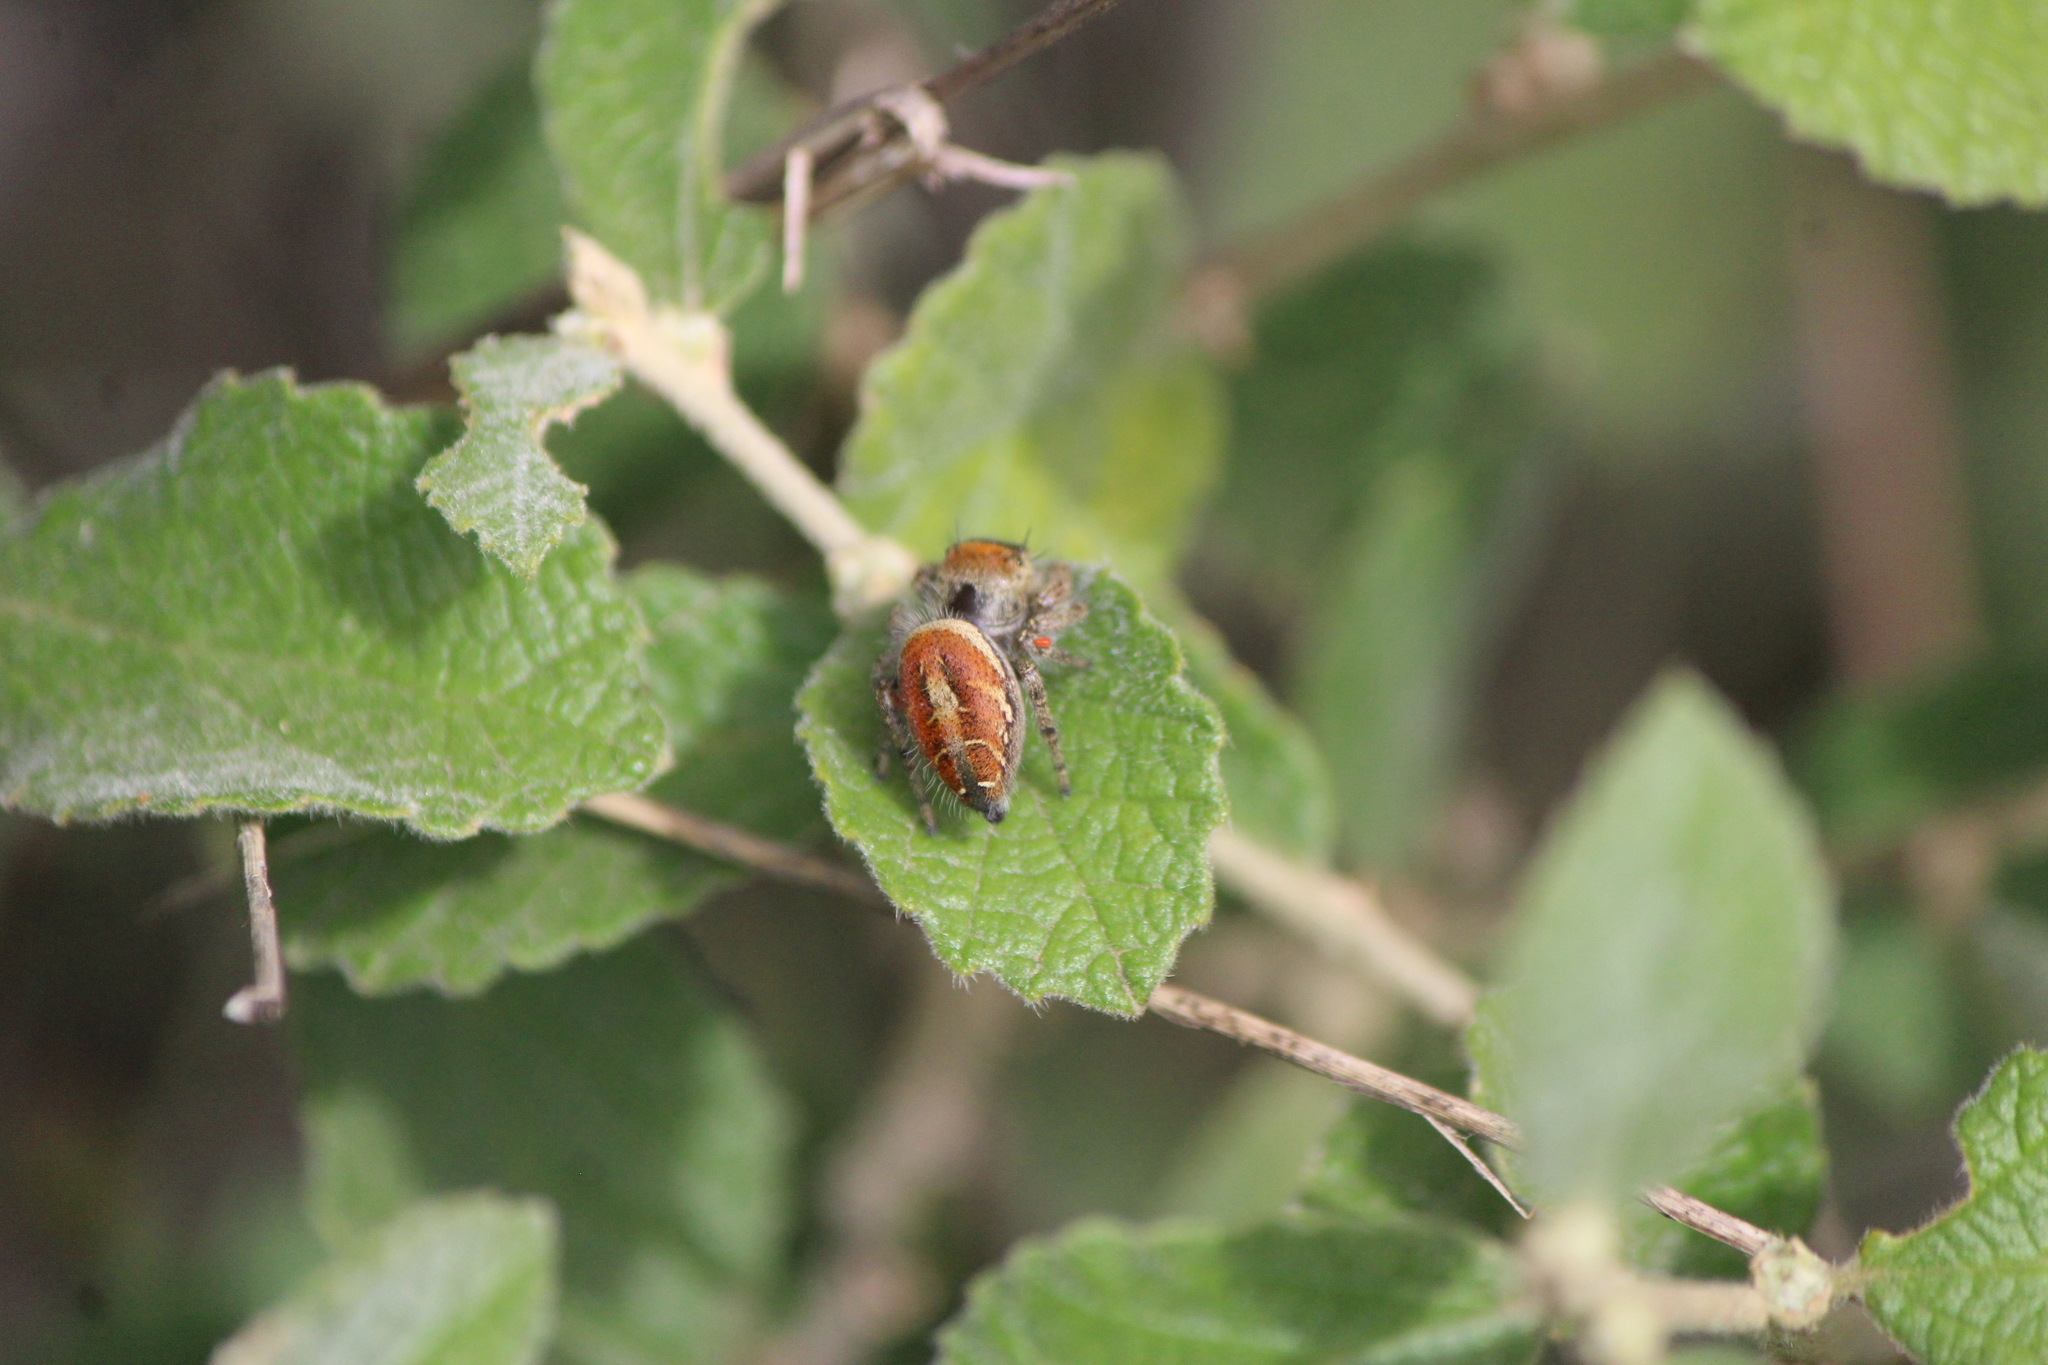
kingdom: Animalia
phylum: Arthropoda
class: Arachnida
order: Araneae
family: Salticidae
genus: Phidippus
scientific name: Phidippus arizonensis
